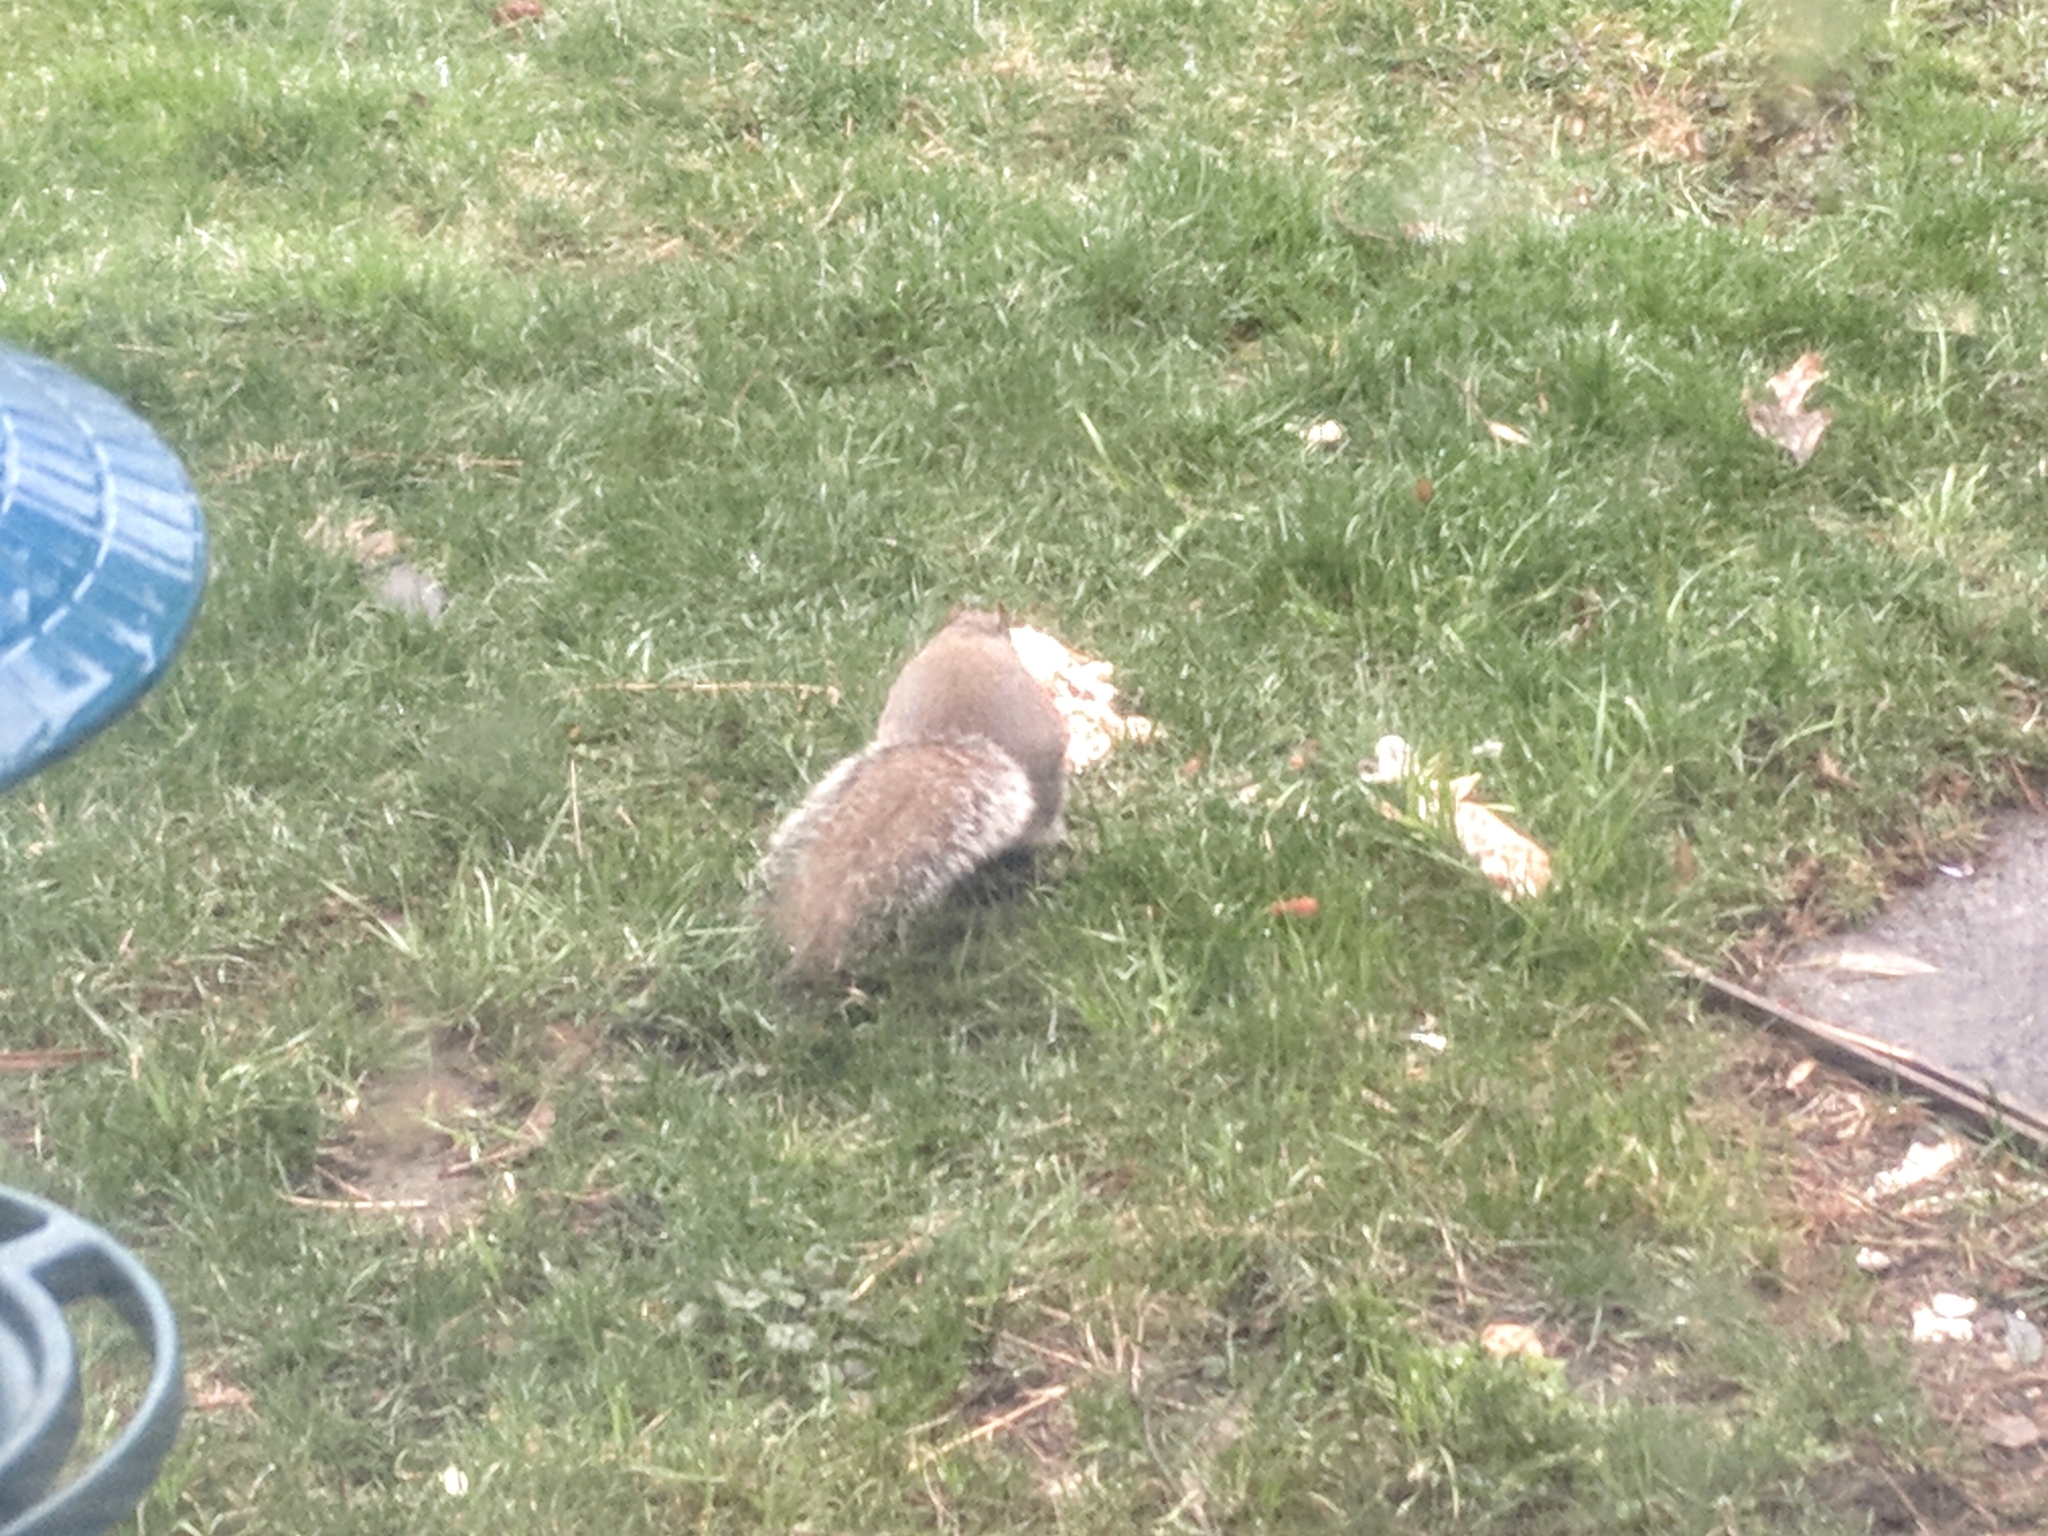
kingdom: Animalia
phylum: Chordata
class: Mammalia
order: Rodentia
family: Sciuridae
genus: Sciurus
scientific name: Sciurus carolinensis
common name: Eastern gray squirrel
